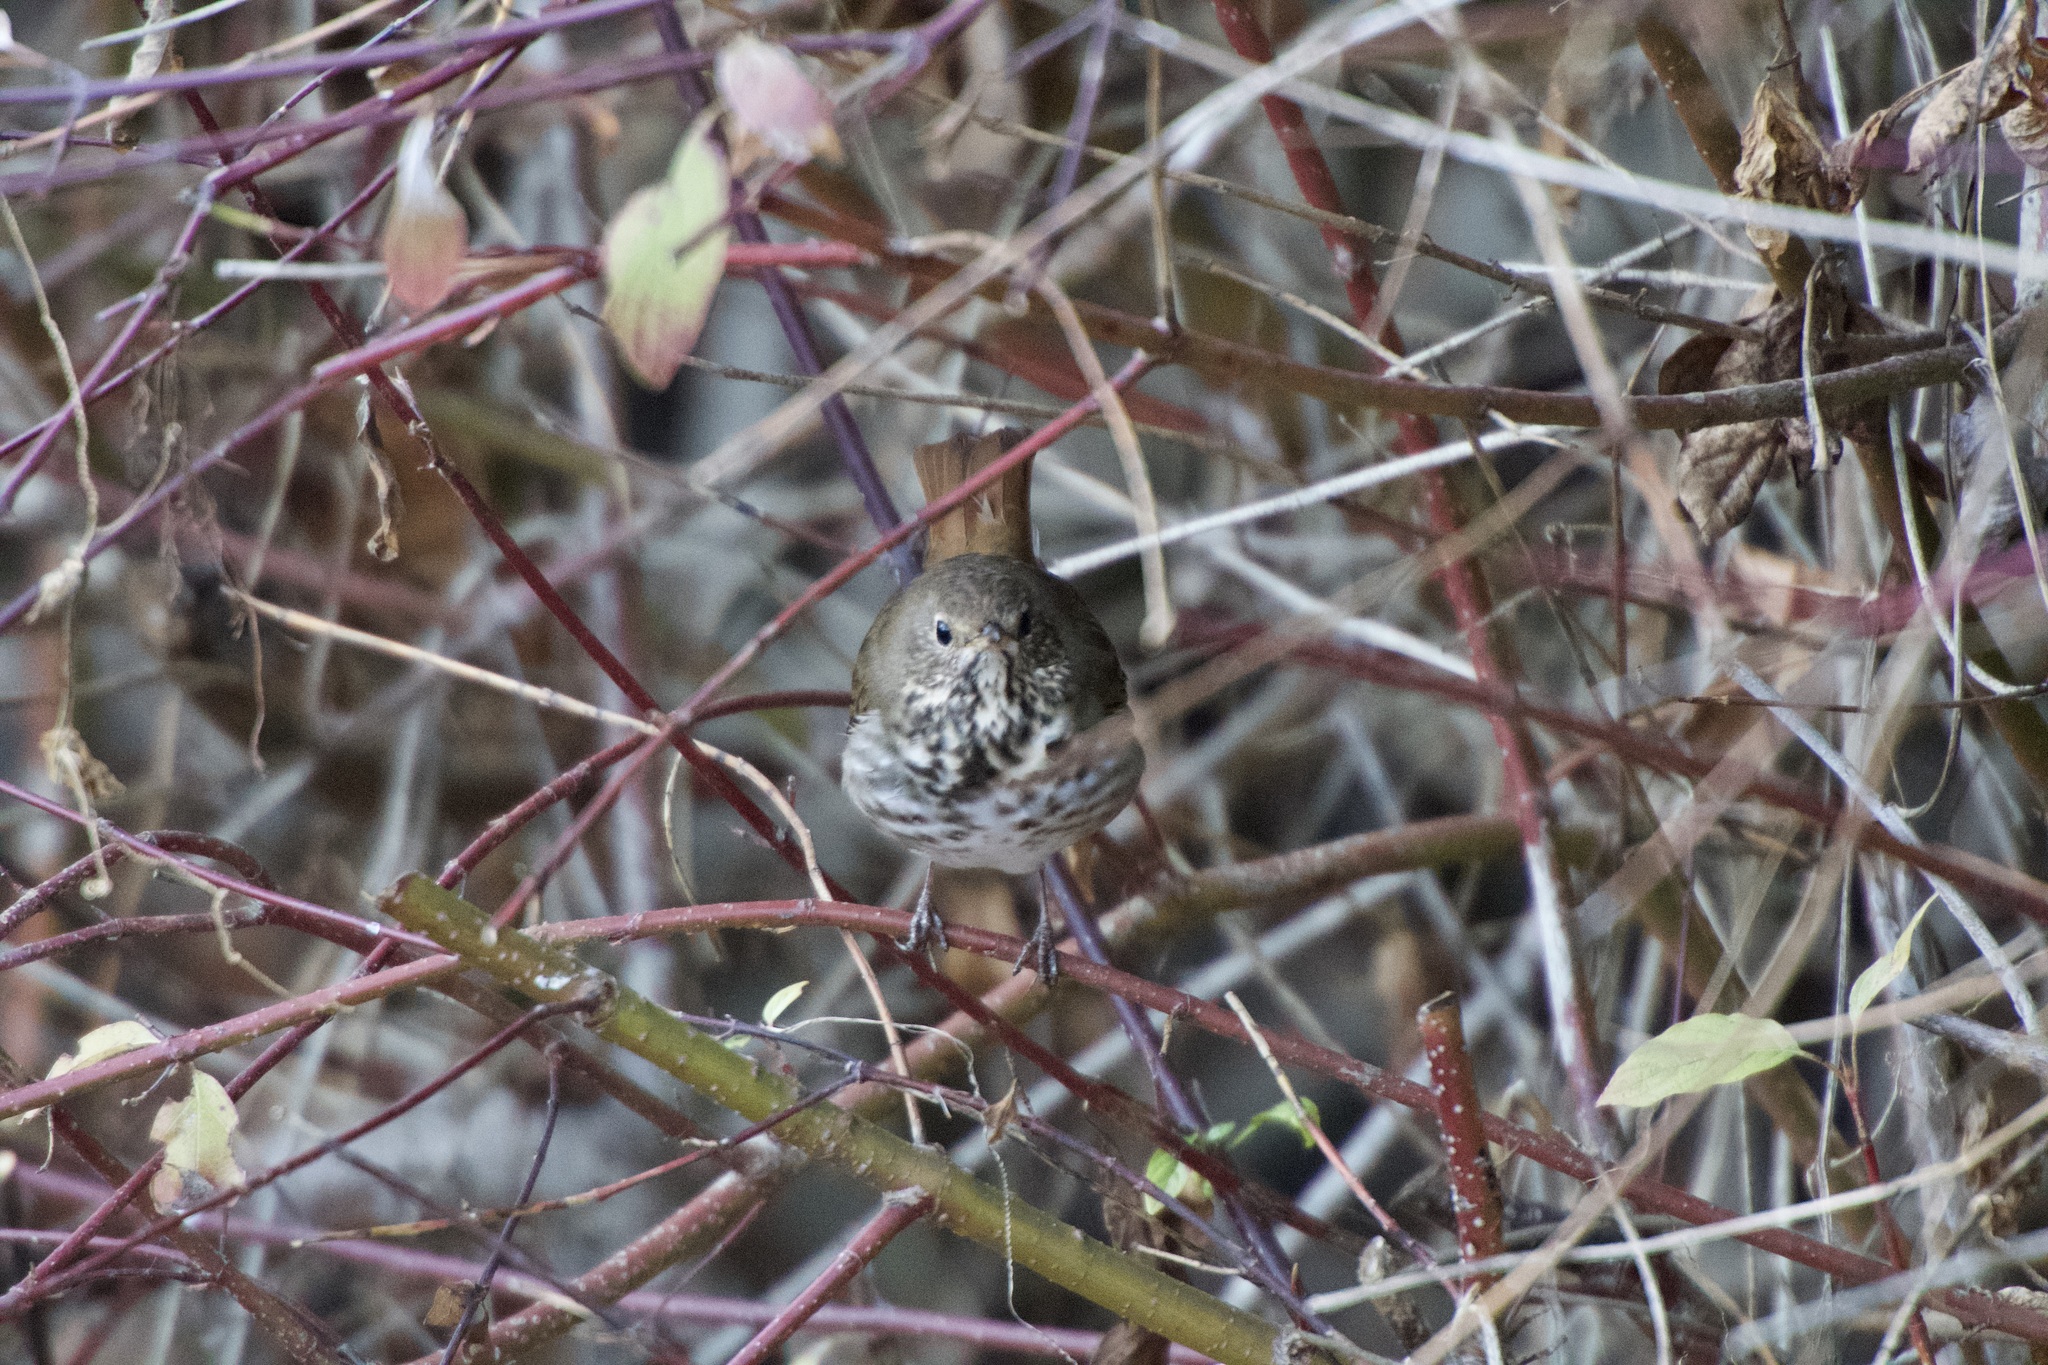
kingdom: Animalia
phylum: Chordata
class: Aves
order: Passeriformes
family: Turdidae
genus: Catharus
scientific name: Catharus guttatus
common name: Hermit thrush
